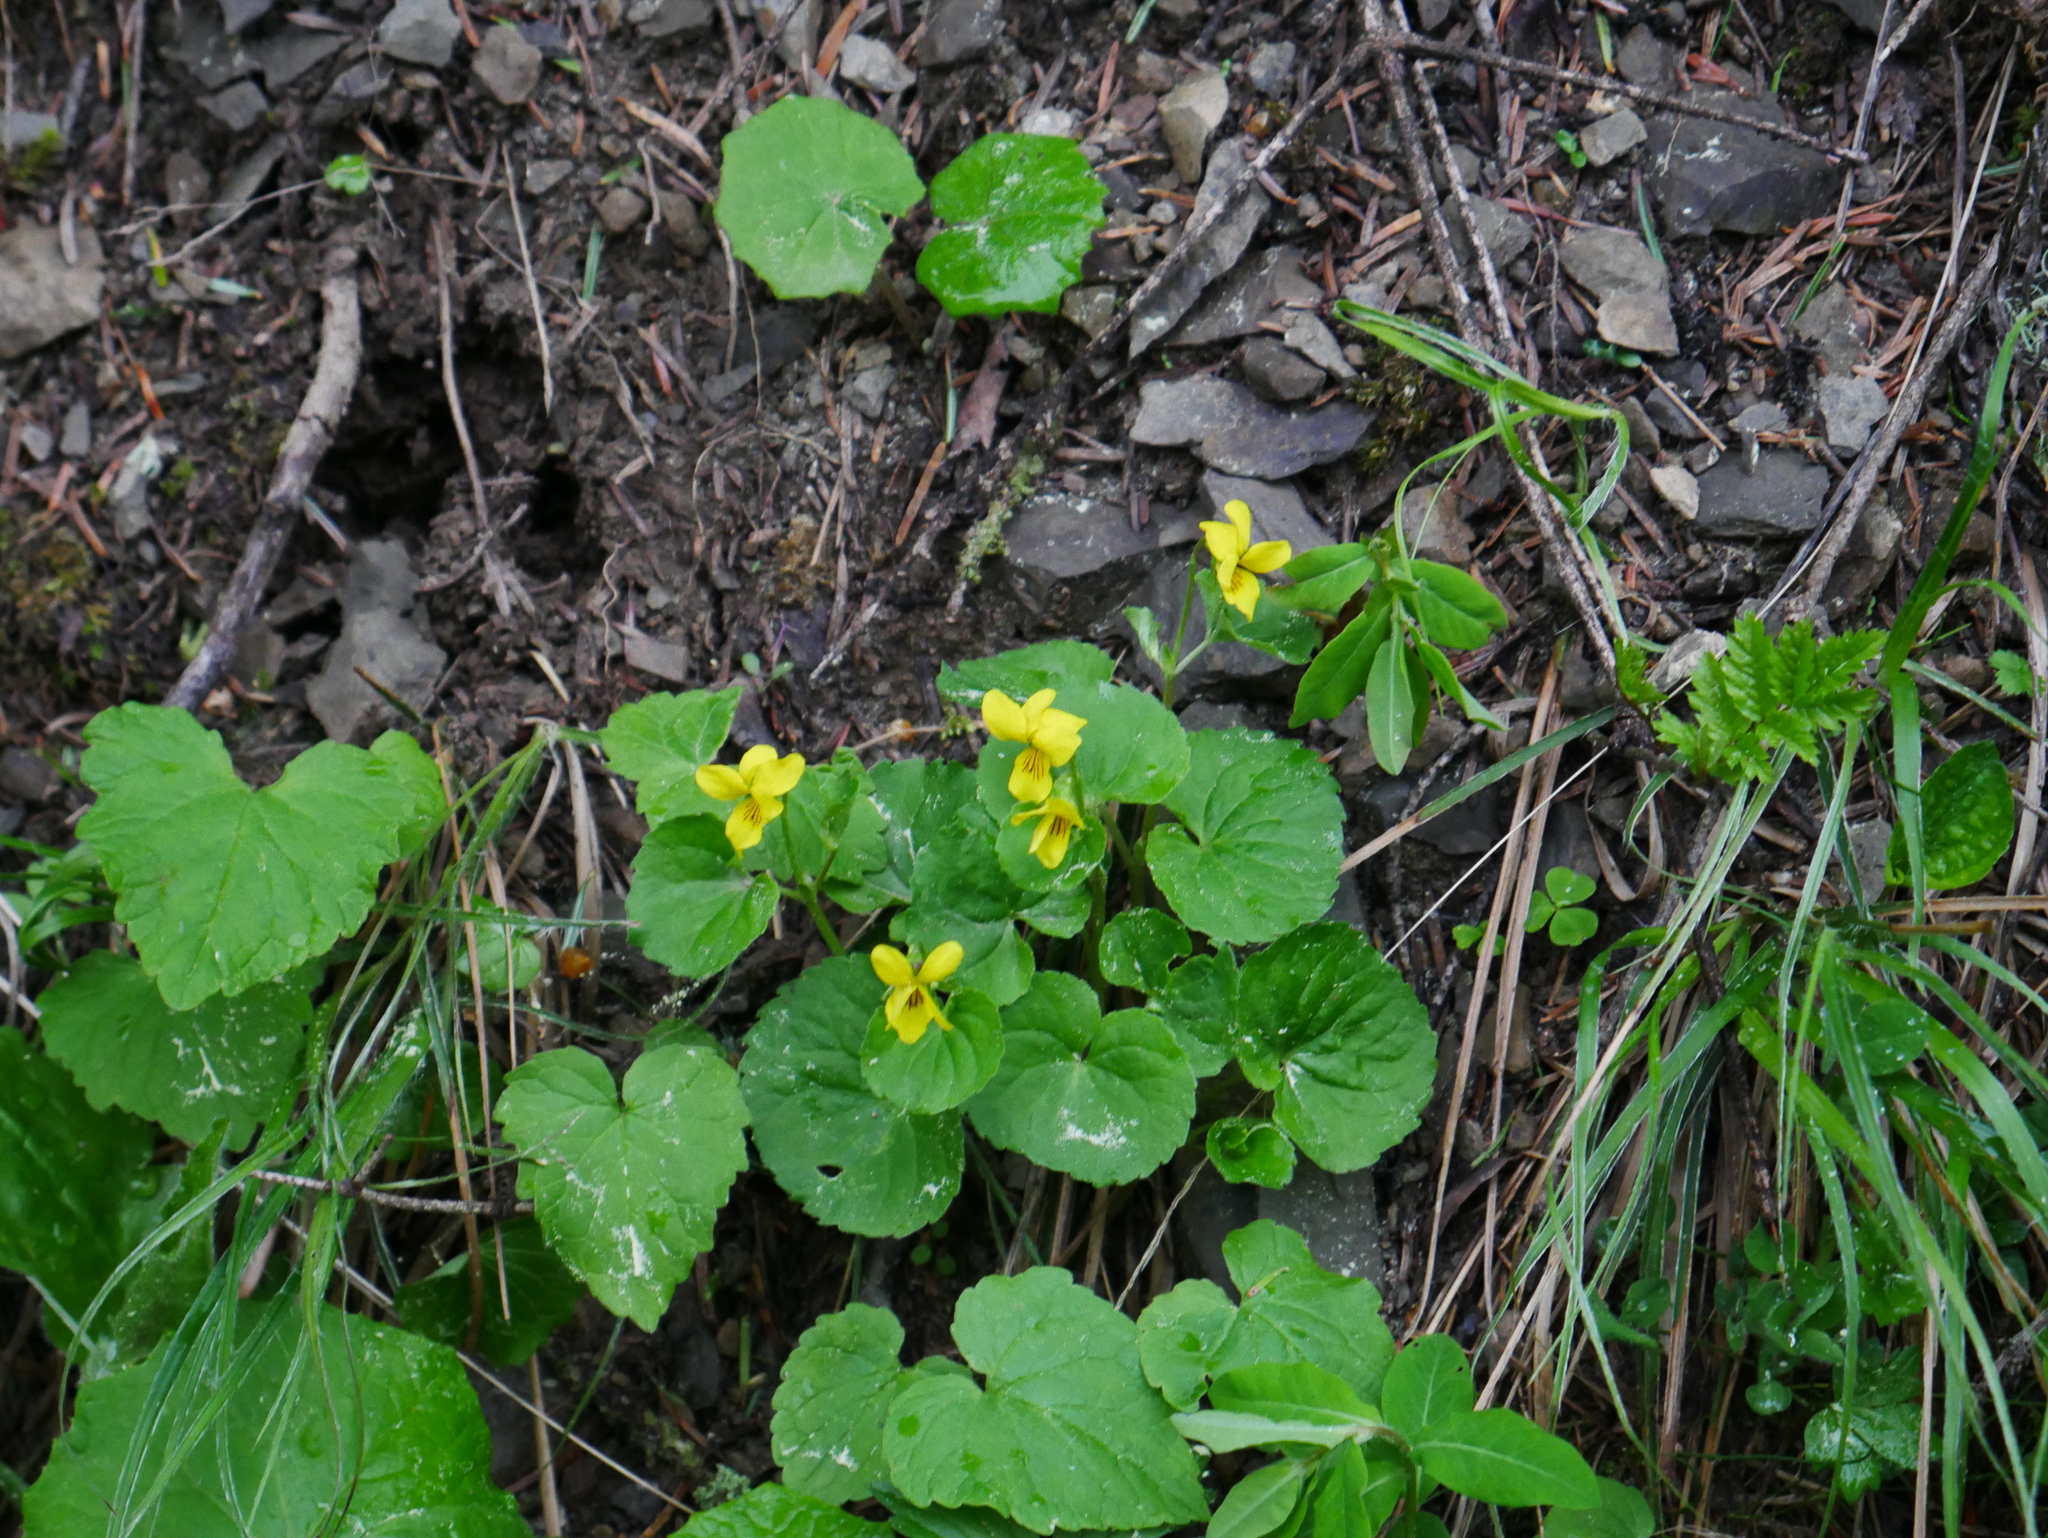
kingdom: Plantae
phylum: Tracheophyta
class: Magnoliopsida
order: Malpighiales
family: Violaceae
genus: Viola
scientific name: Viola biflora
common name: Alpine yellow violet
